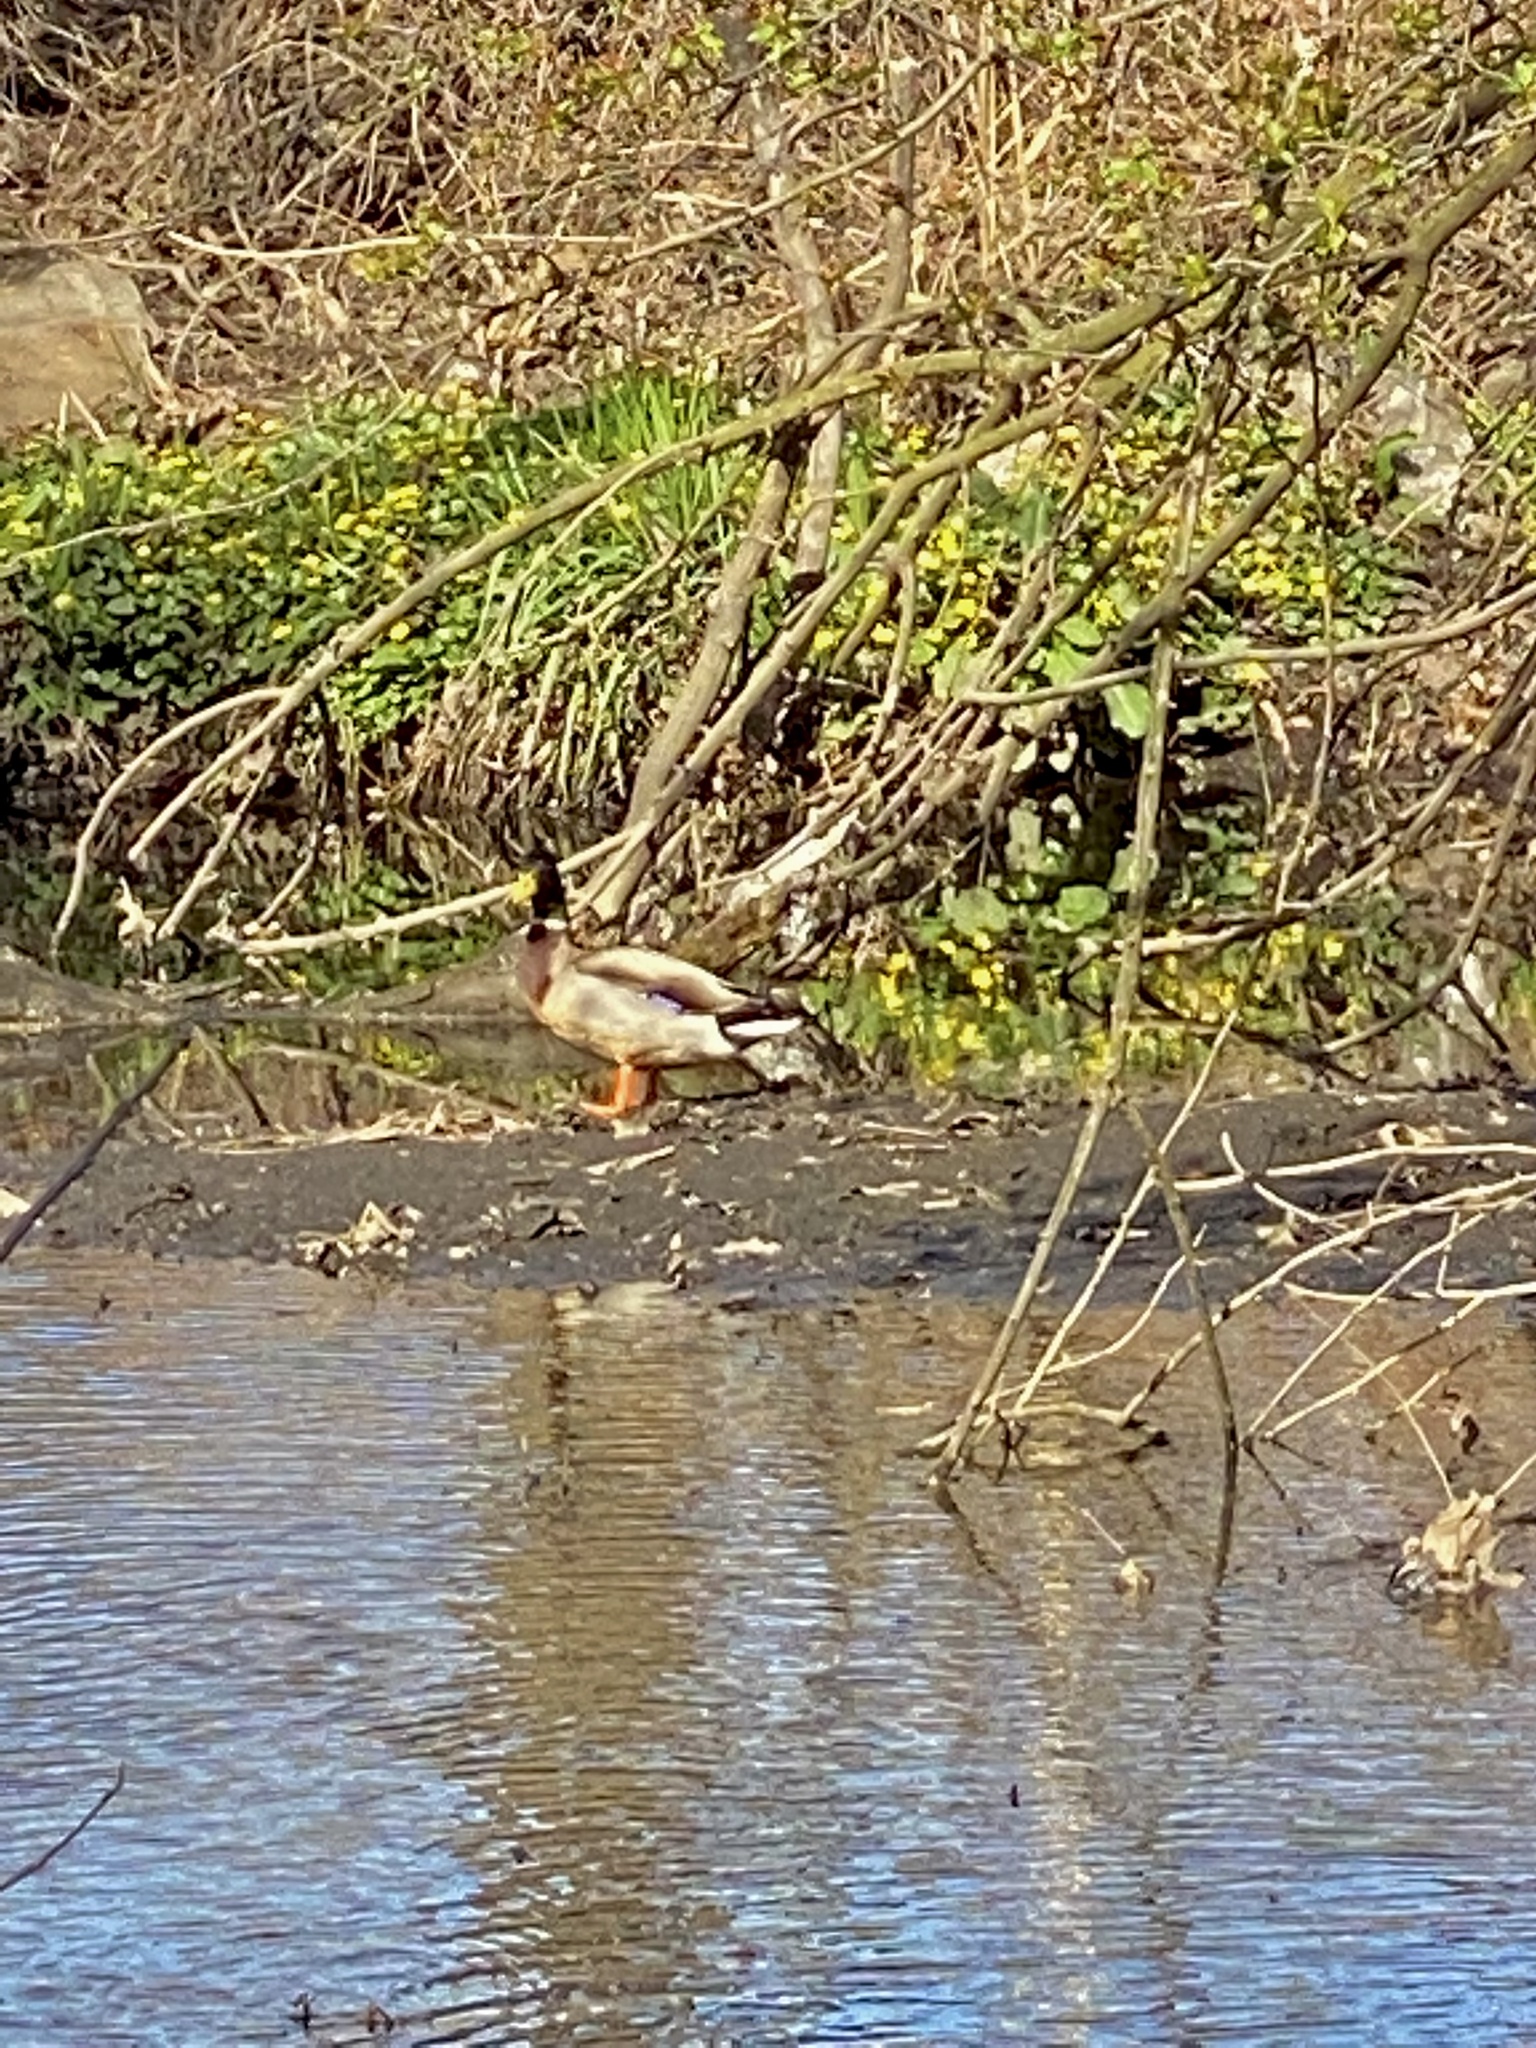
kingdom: Animalia
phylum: Chordata
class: Aves
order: Anseriformes
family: Anatidae
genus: Anas
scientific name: Anas platyrhynchos
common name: Mallard
